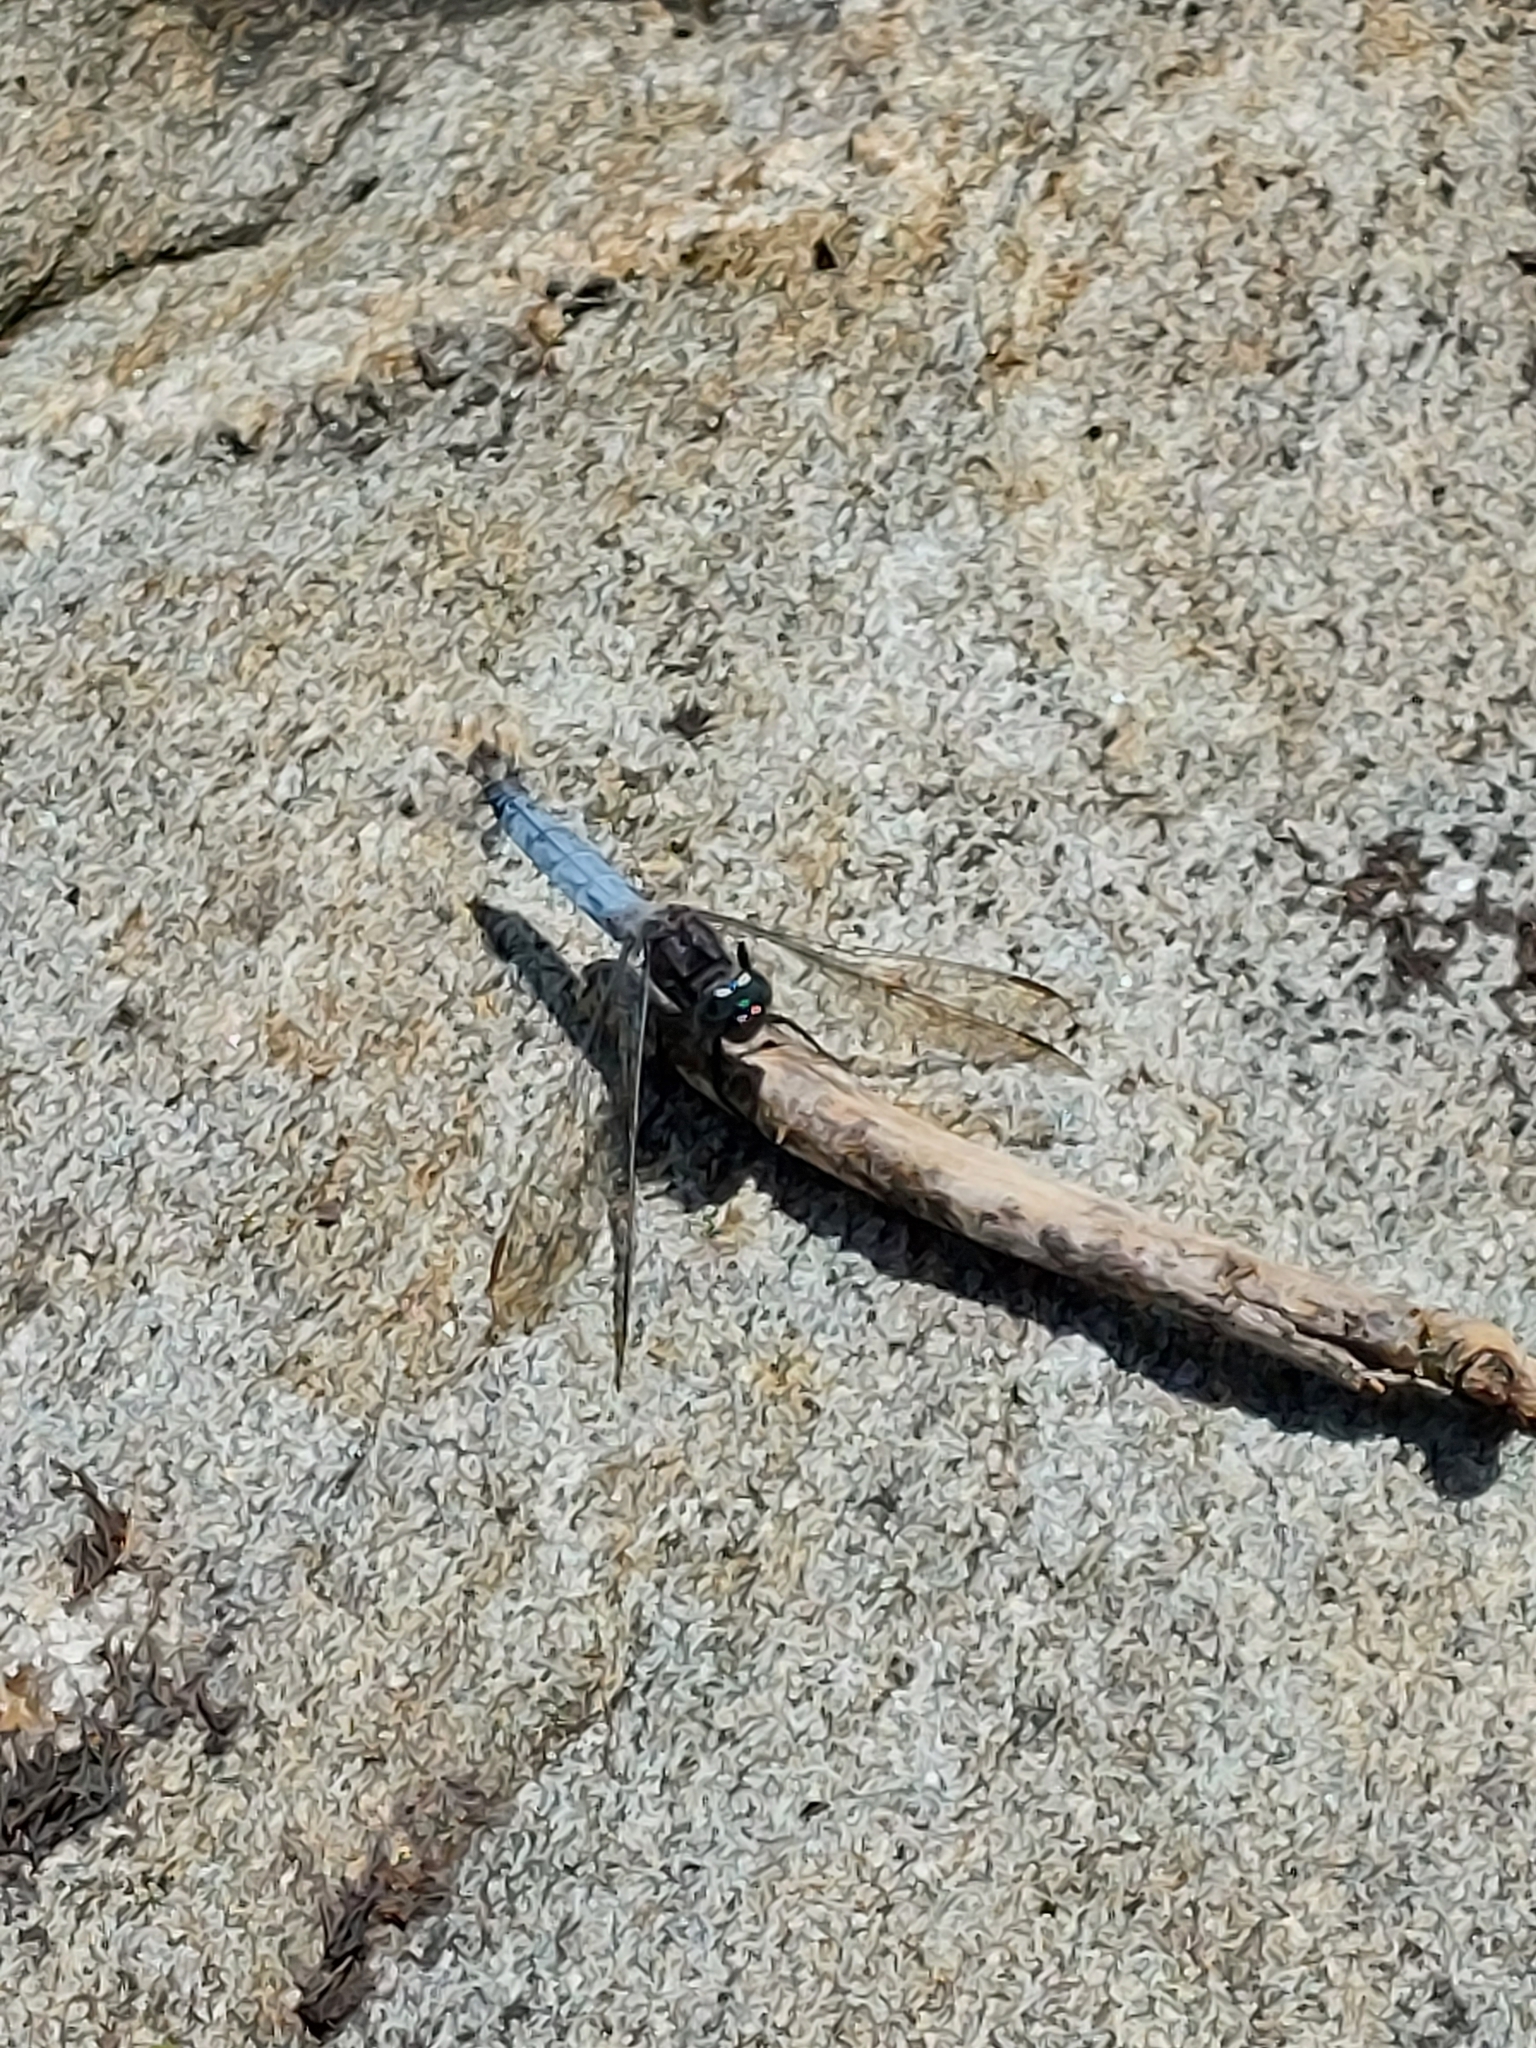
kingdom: Animalia
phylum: Arthropoda
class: Insecta
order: Odonata
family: Libellulidae
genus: Orthetrum
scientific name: Orthetrum coerulescens
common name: Keeled skimmer
